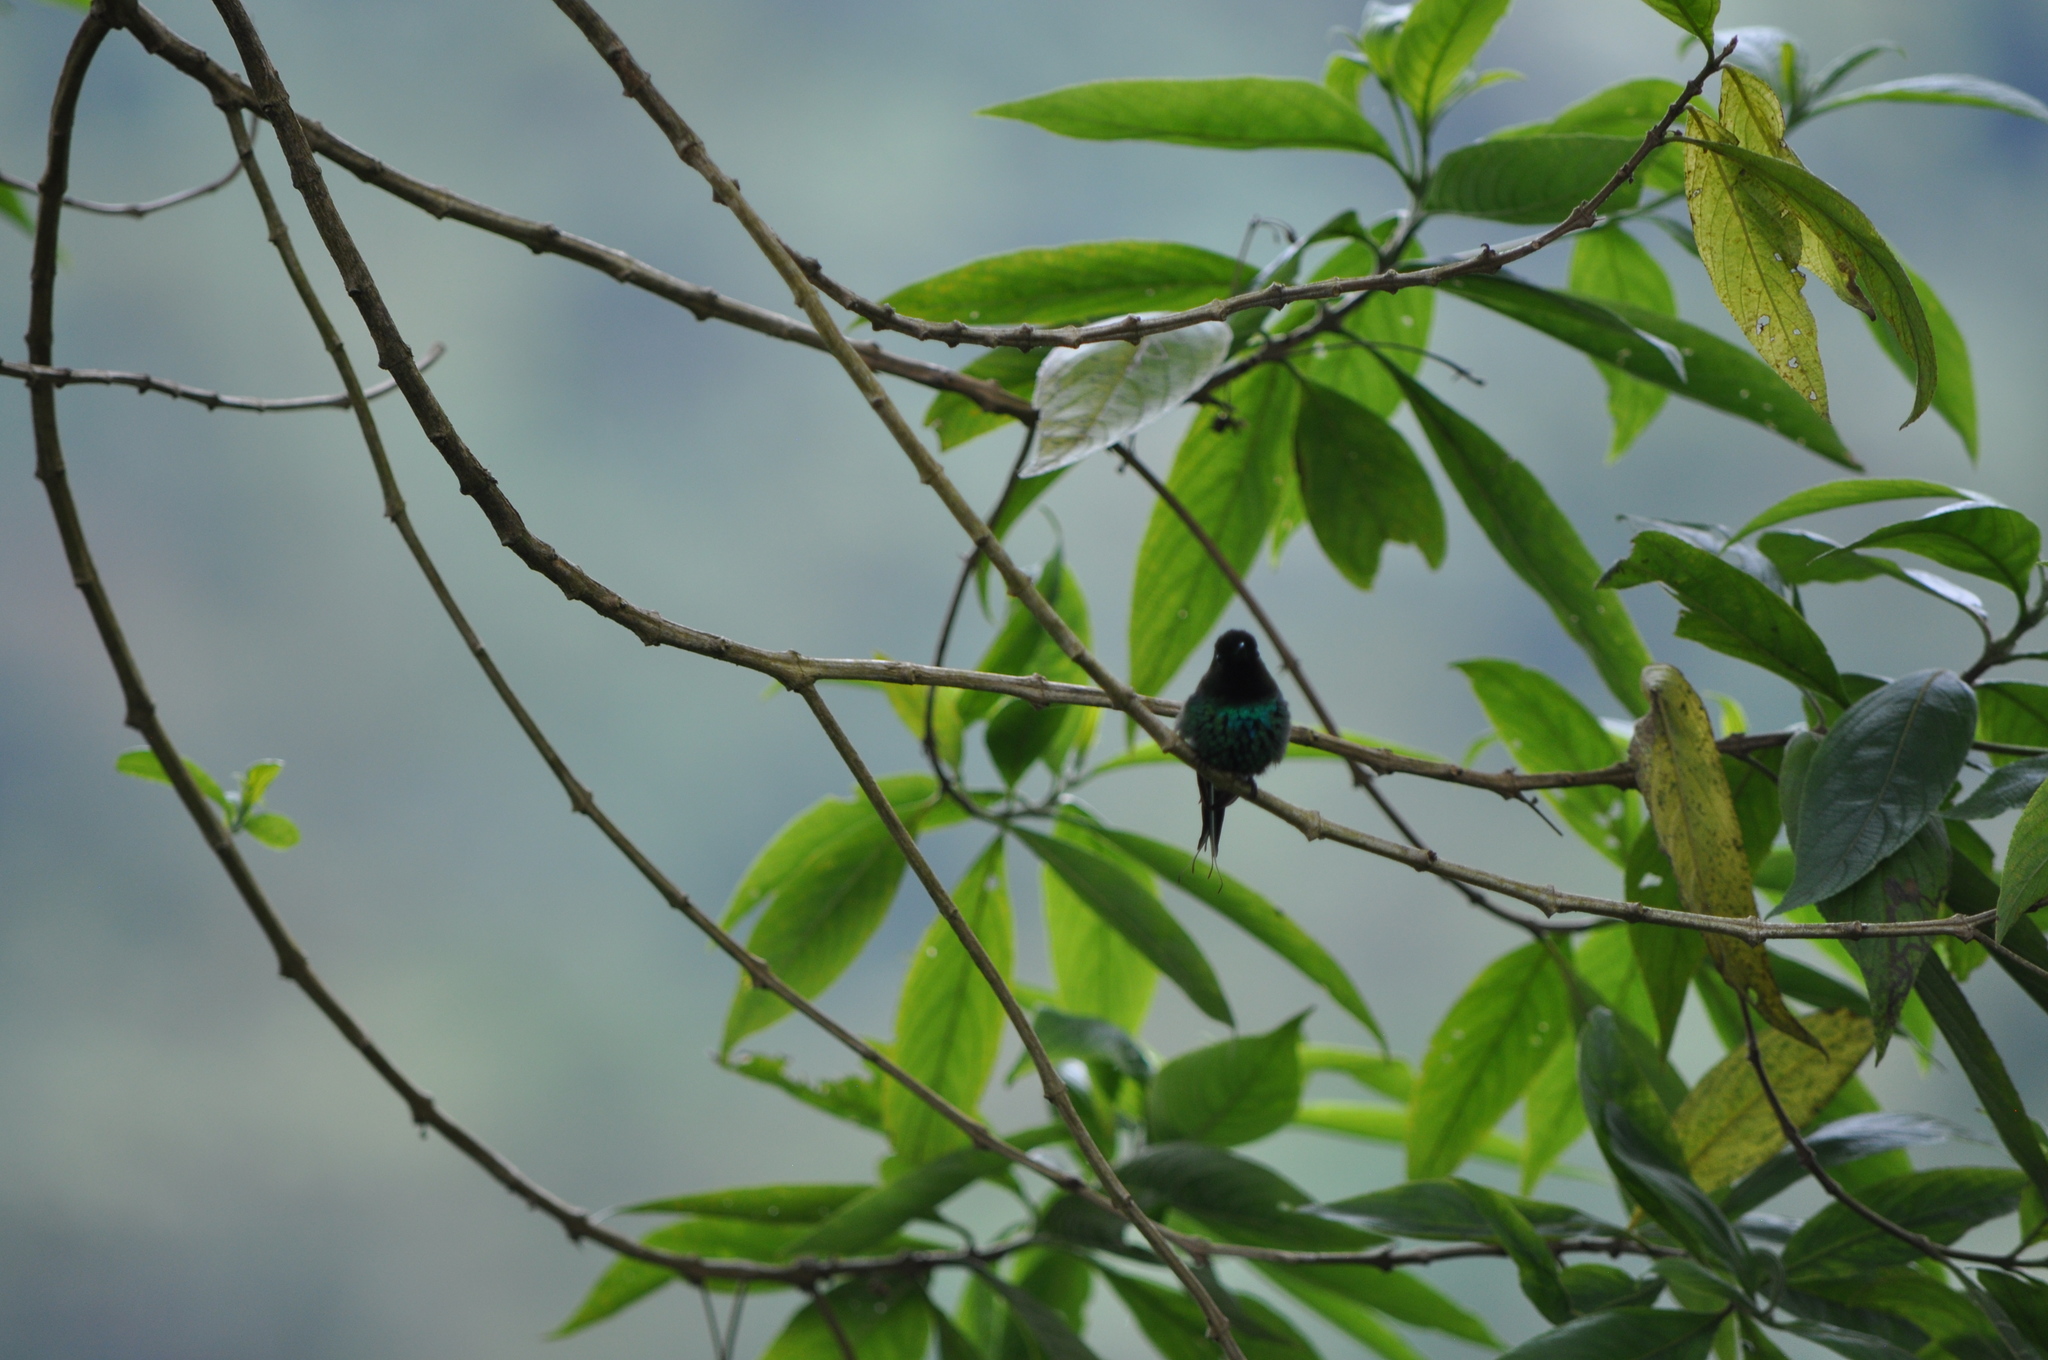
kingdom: Animalia
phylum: Chordata
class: Aves
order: Apodiformes
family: Trochilidae
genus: Discosura
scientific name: Discosura conversii
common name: Green thorntail
